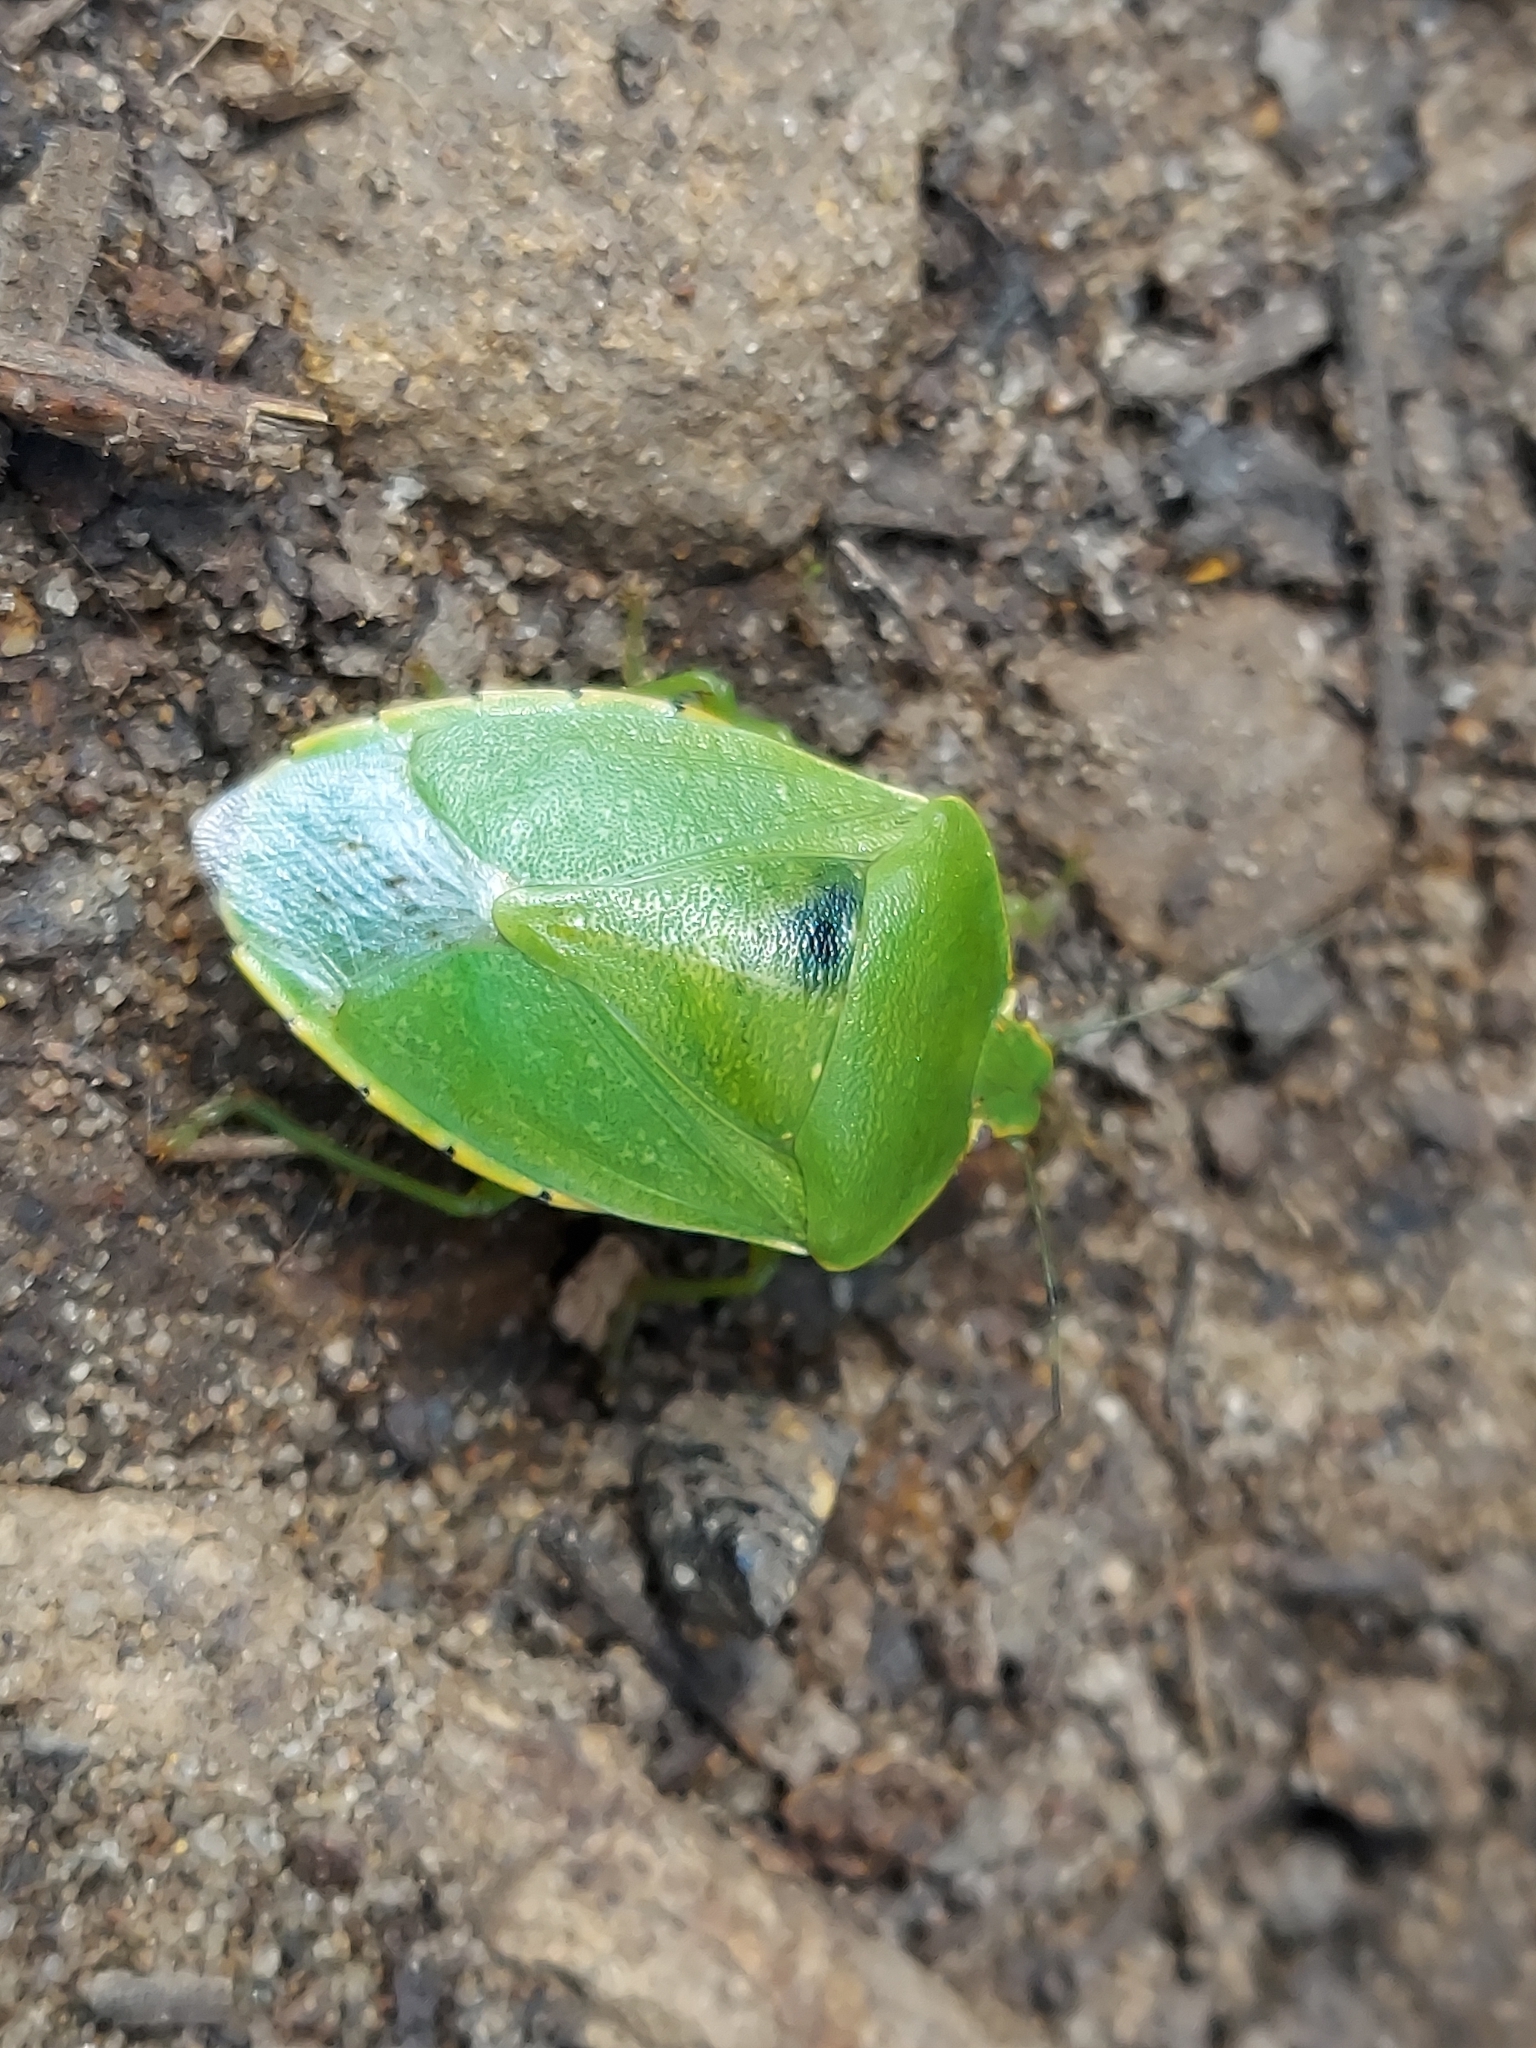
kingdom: Animalia
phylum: Arthropoda
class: Insecta
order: Hemiptera
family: Pentatomidae
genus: Chinavia
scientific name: Chinavia hilaris
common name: Green stink bug
